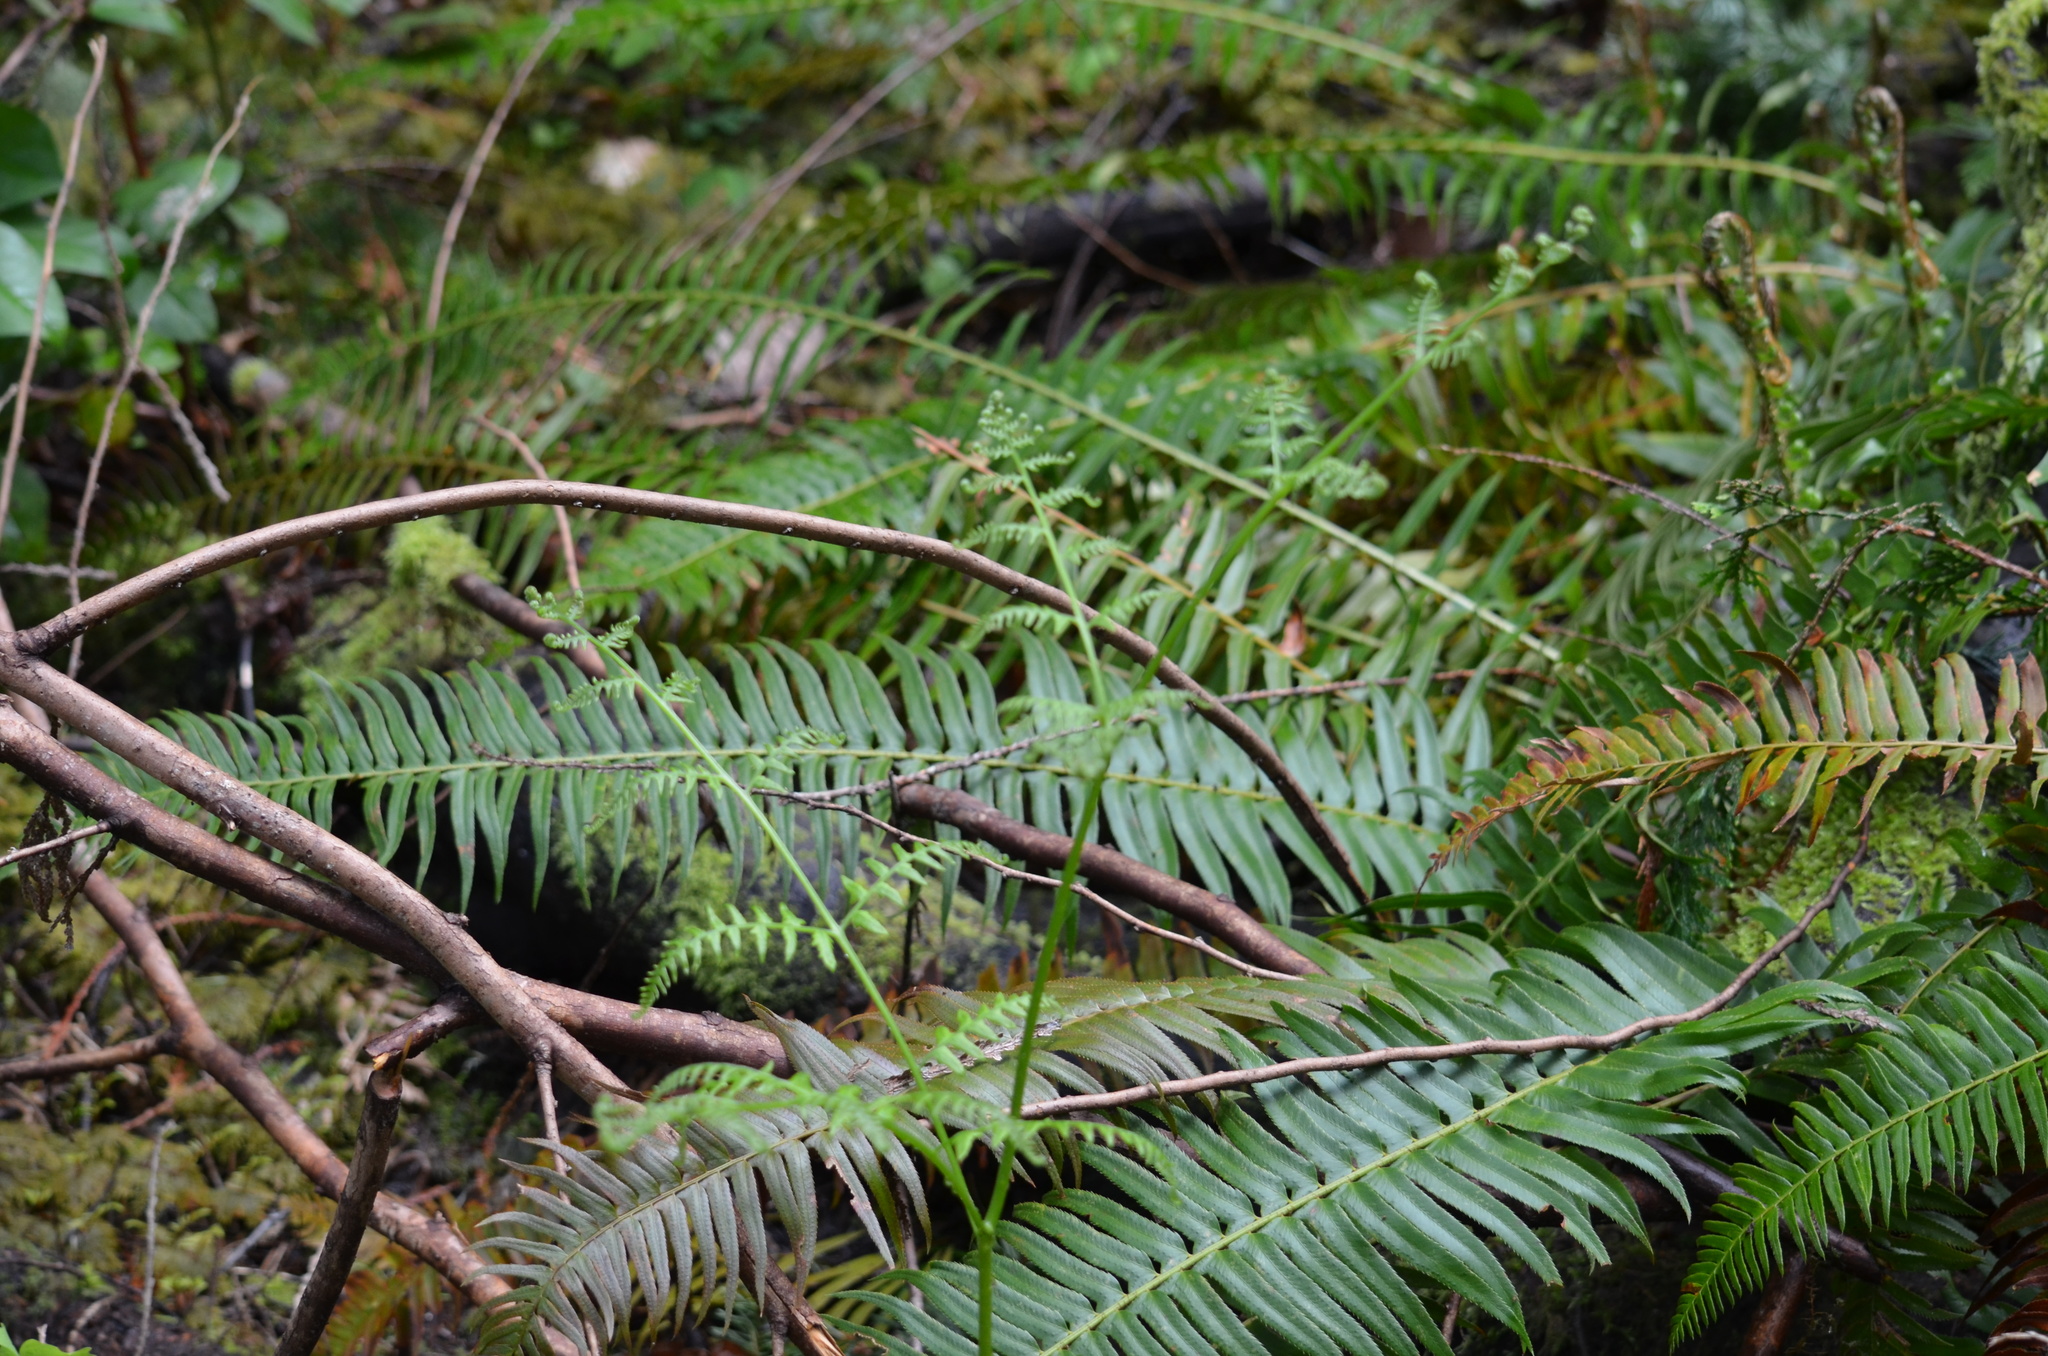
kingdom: Plantae
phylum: Tracheophyta
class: Polypodiopsida
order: Polypodiales
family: Dryopteridaceae
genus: Polystichum
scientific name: Polystichum munitum
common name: Western sword-fern
